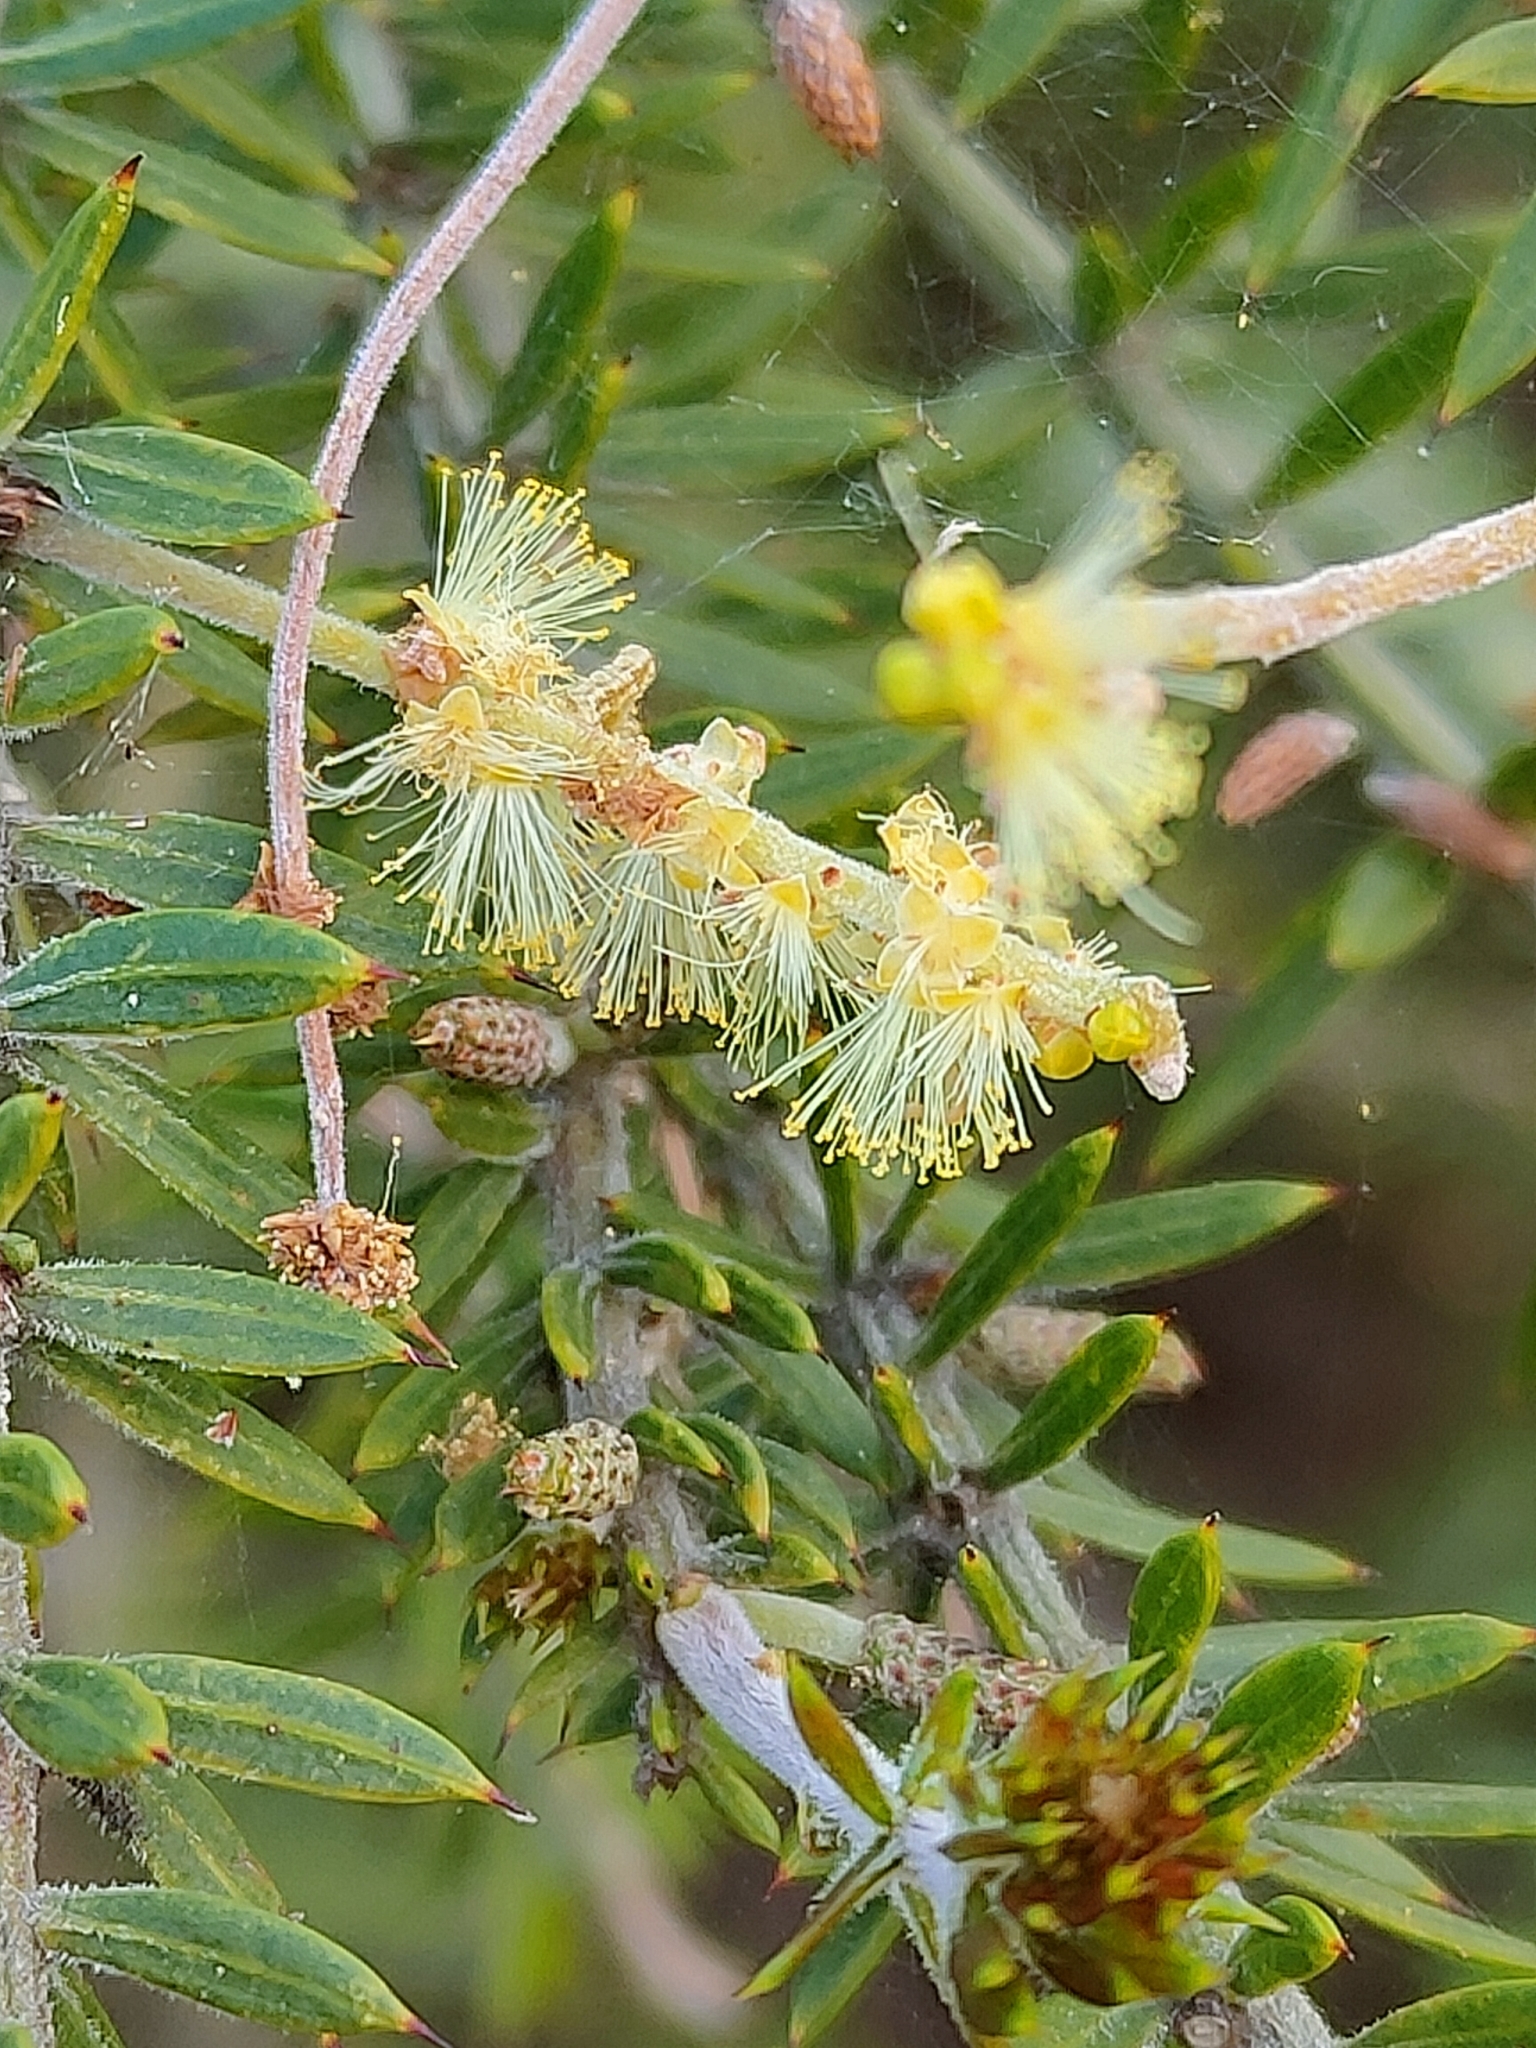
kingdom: Plantae
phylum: Tracheophyta
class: Magnoliopsida
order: Fabales
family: Fabaceae
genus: Acacia
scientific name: Acacia verticillata
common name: Prickly moses
